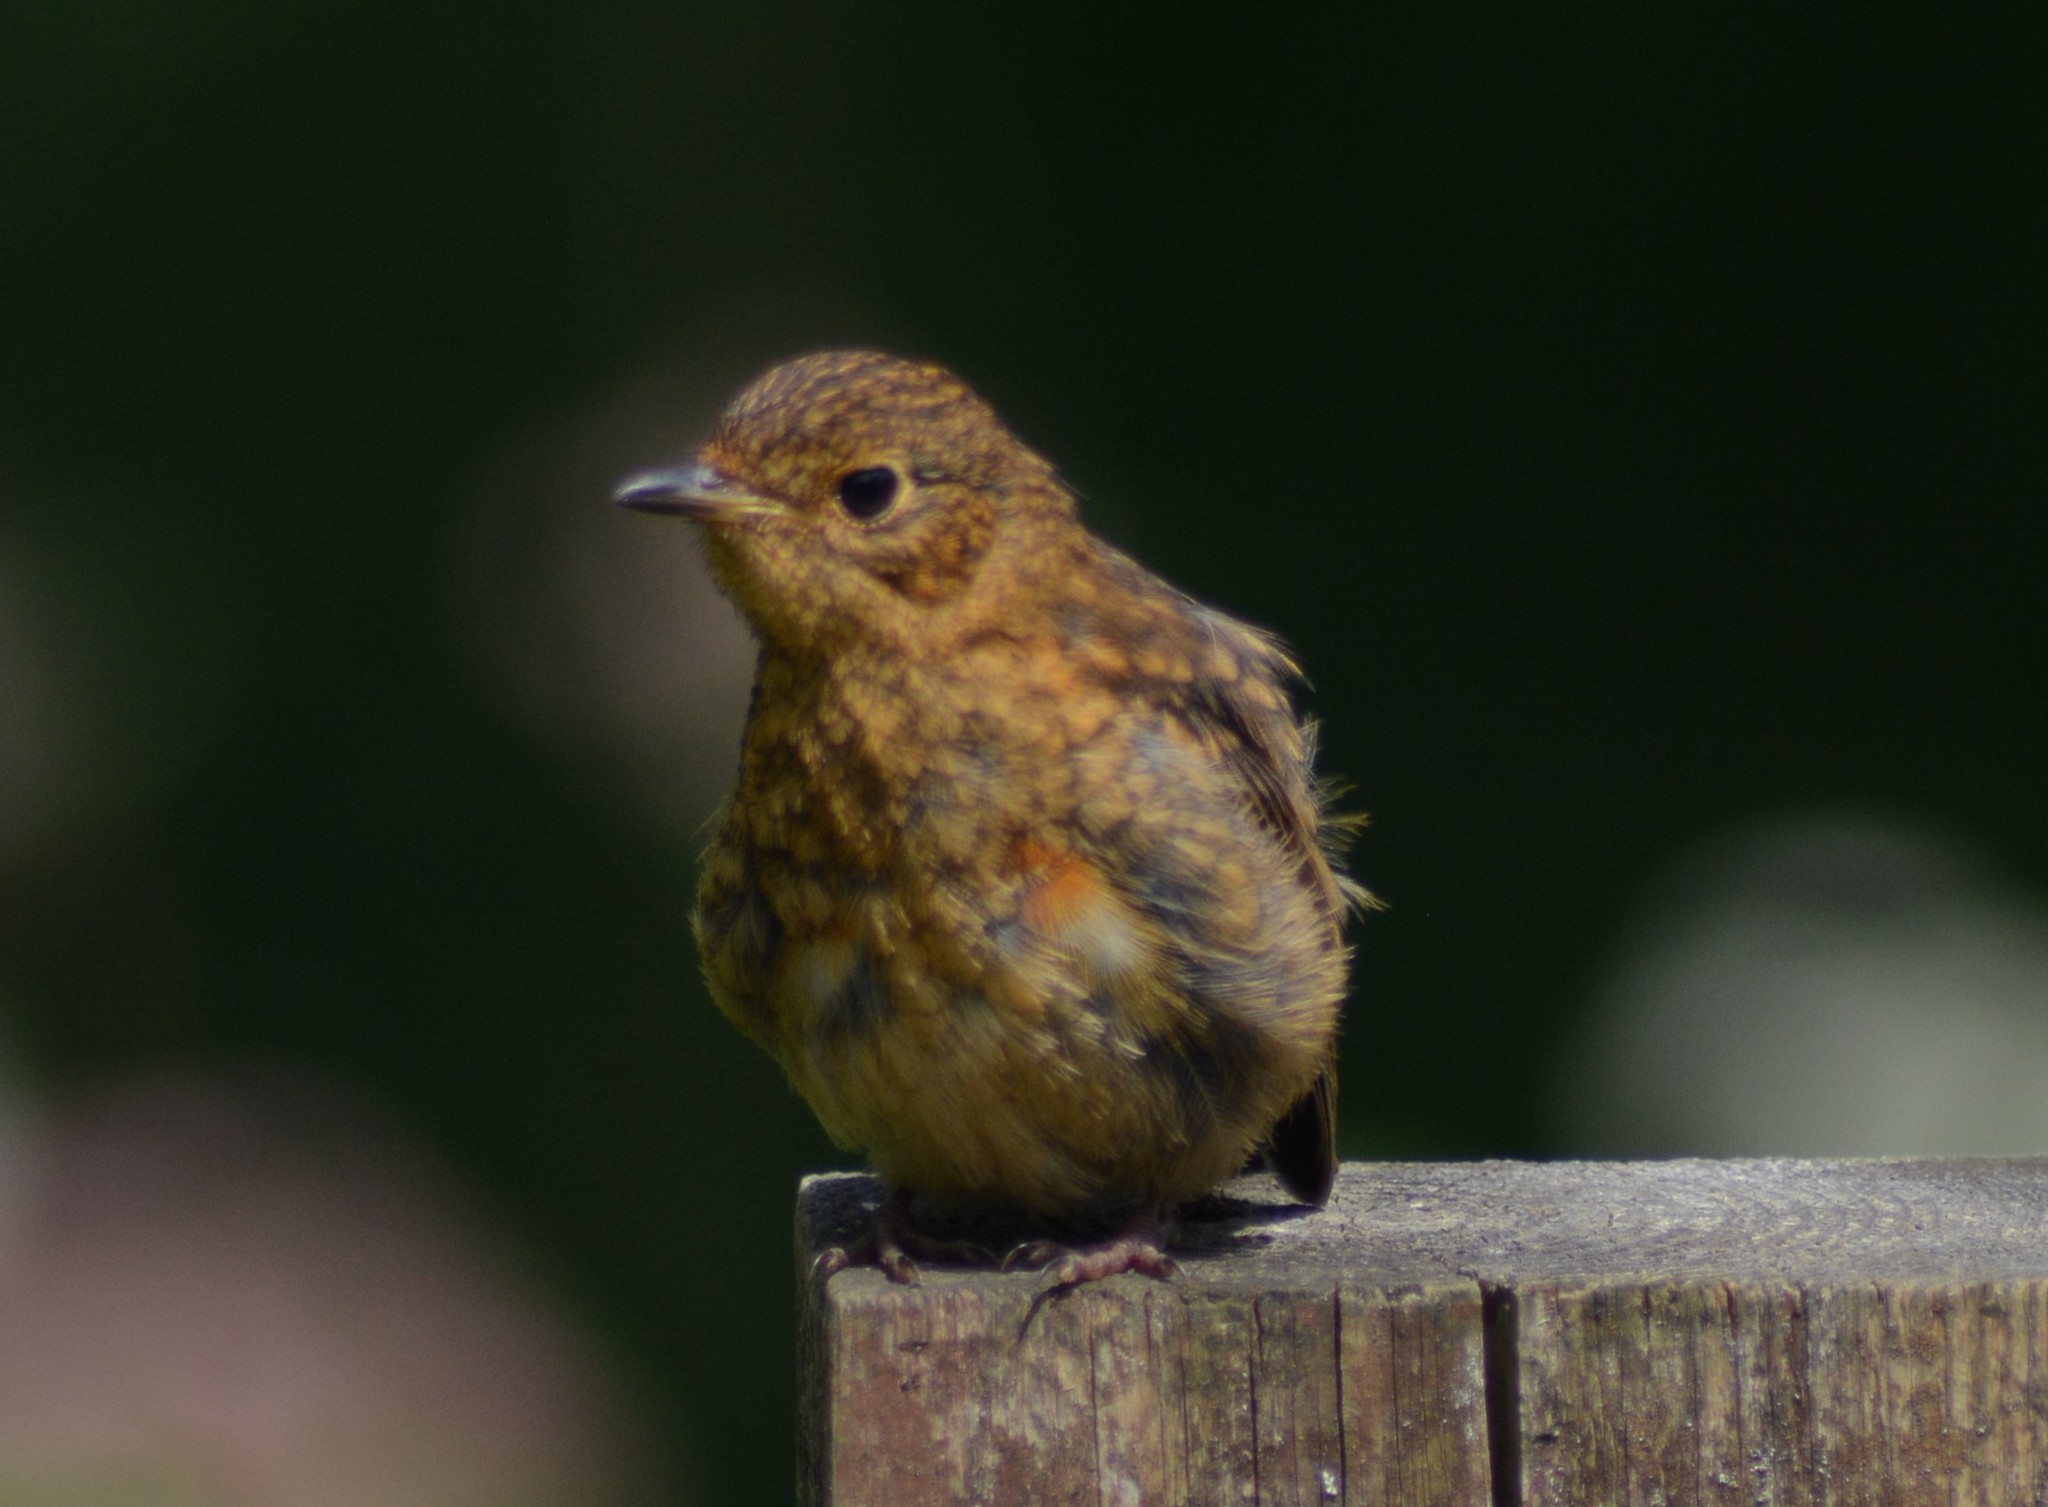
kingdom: Animalia
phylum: Chordata
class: Aves
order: Passeriformes
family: Muscicapidae
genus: Erithacus
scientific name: Erithacus rubecula
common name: European robin
